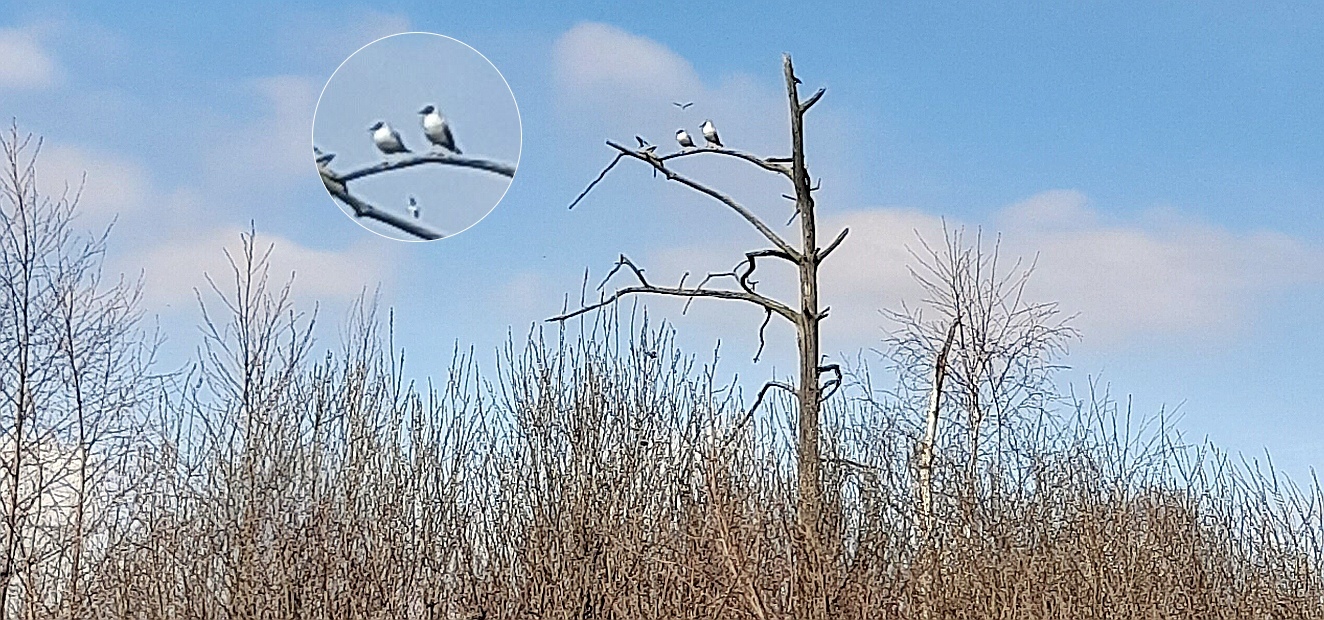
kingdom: Animalia
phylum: Chordata
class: Aves
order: Charadriiformes
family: Laridae
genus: Chroicocephalus
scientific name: Chroicocephalus ridibundus
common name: Black-headed gull
